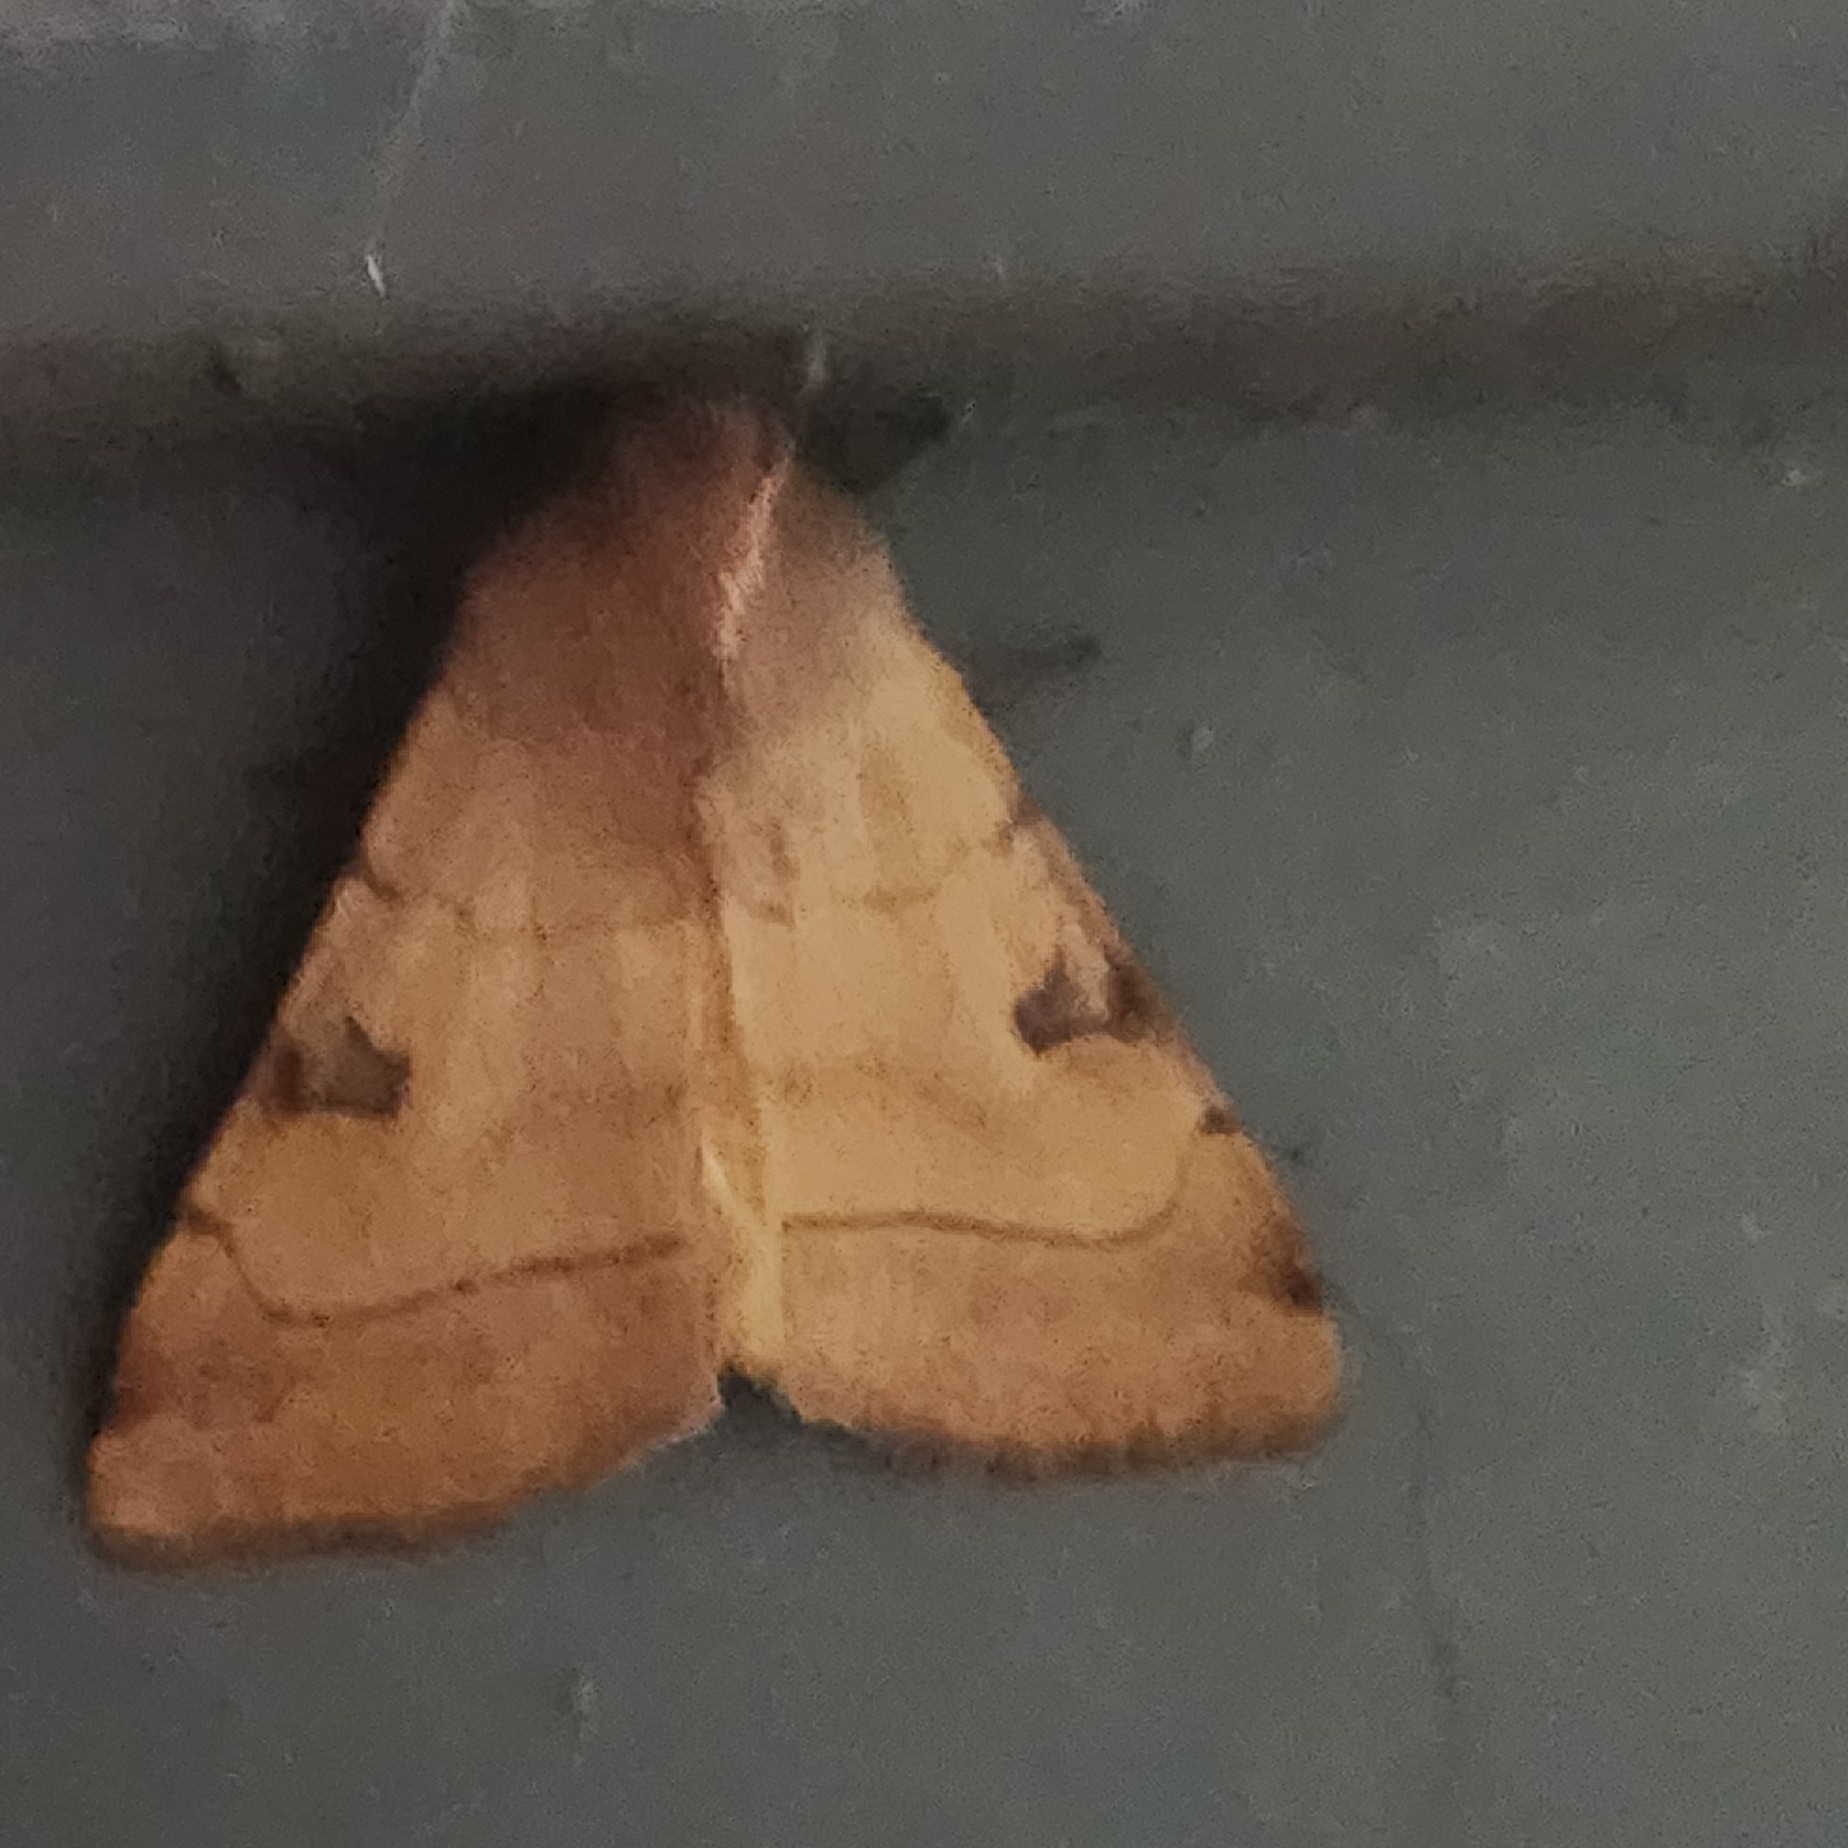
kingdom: Animalia
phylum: Arthropoda
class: Insecta
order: Lepidoptera
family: Noctuidae
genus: Choephora
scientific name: Choephora fungorum
